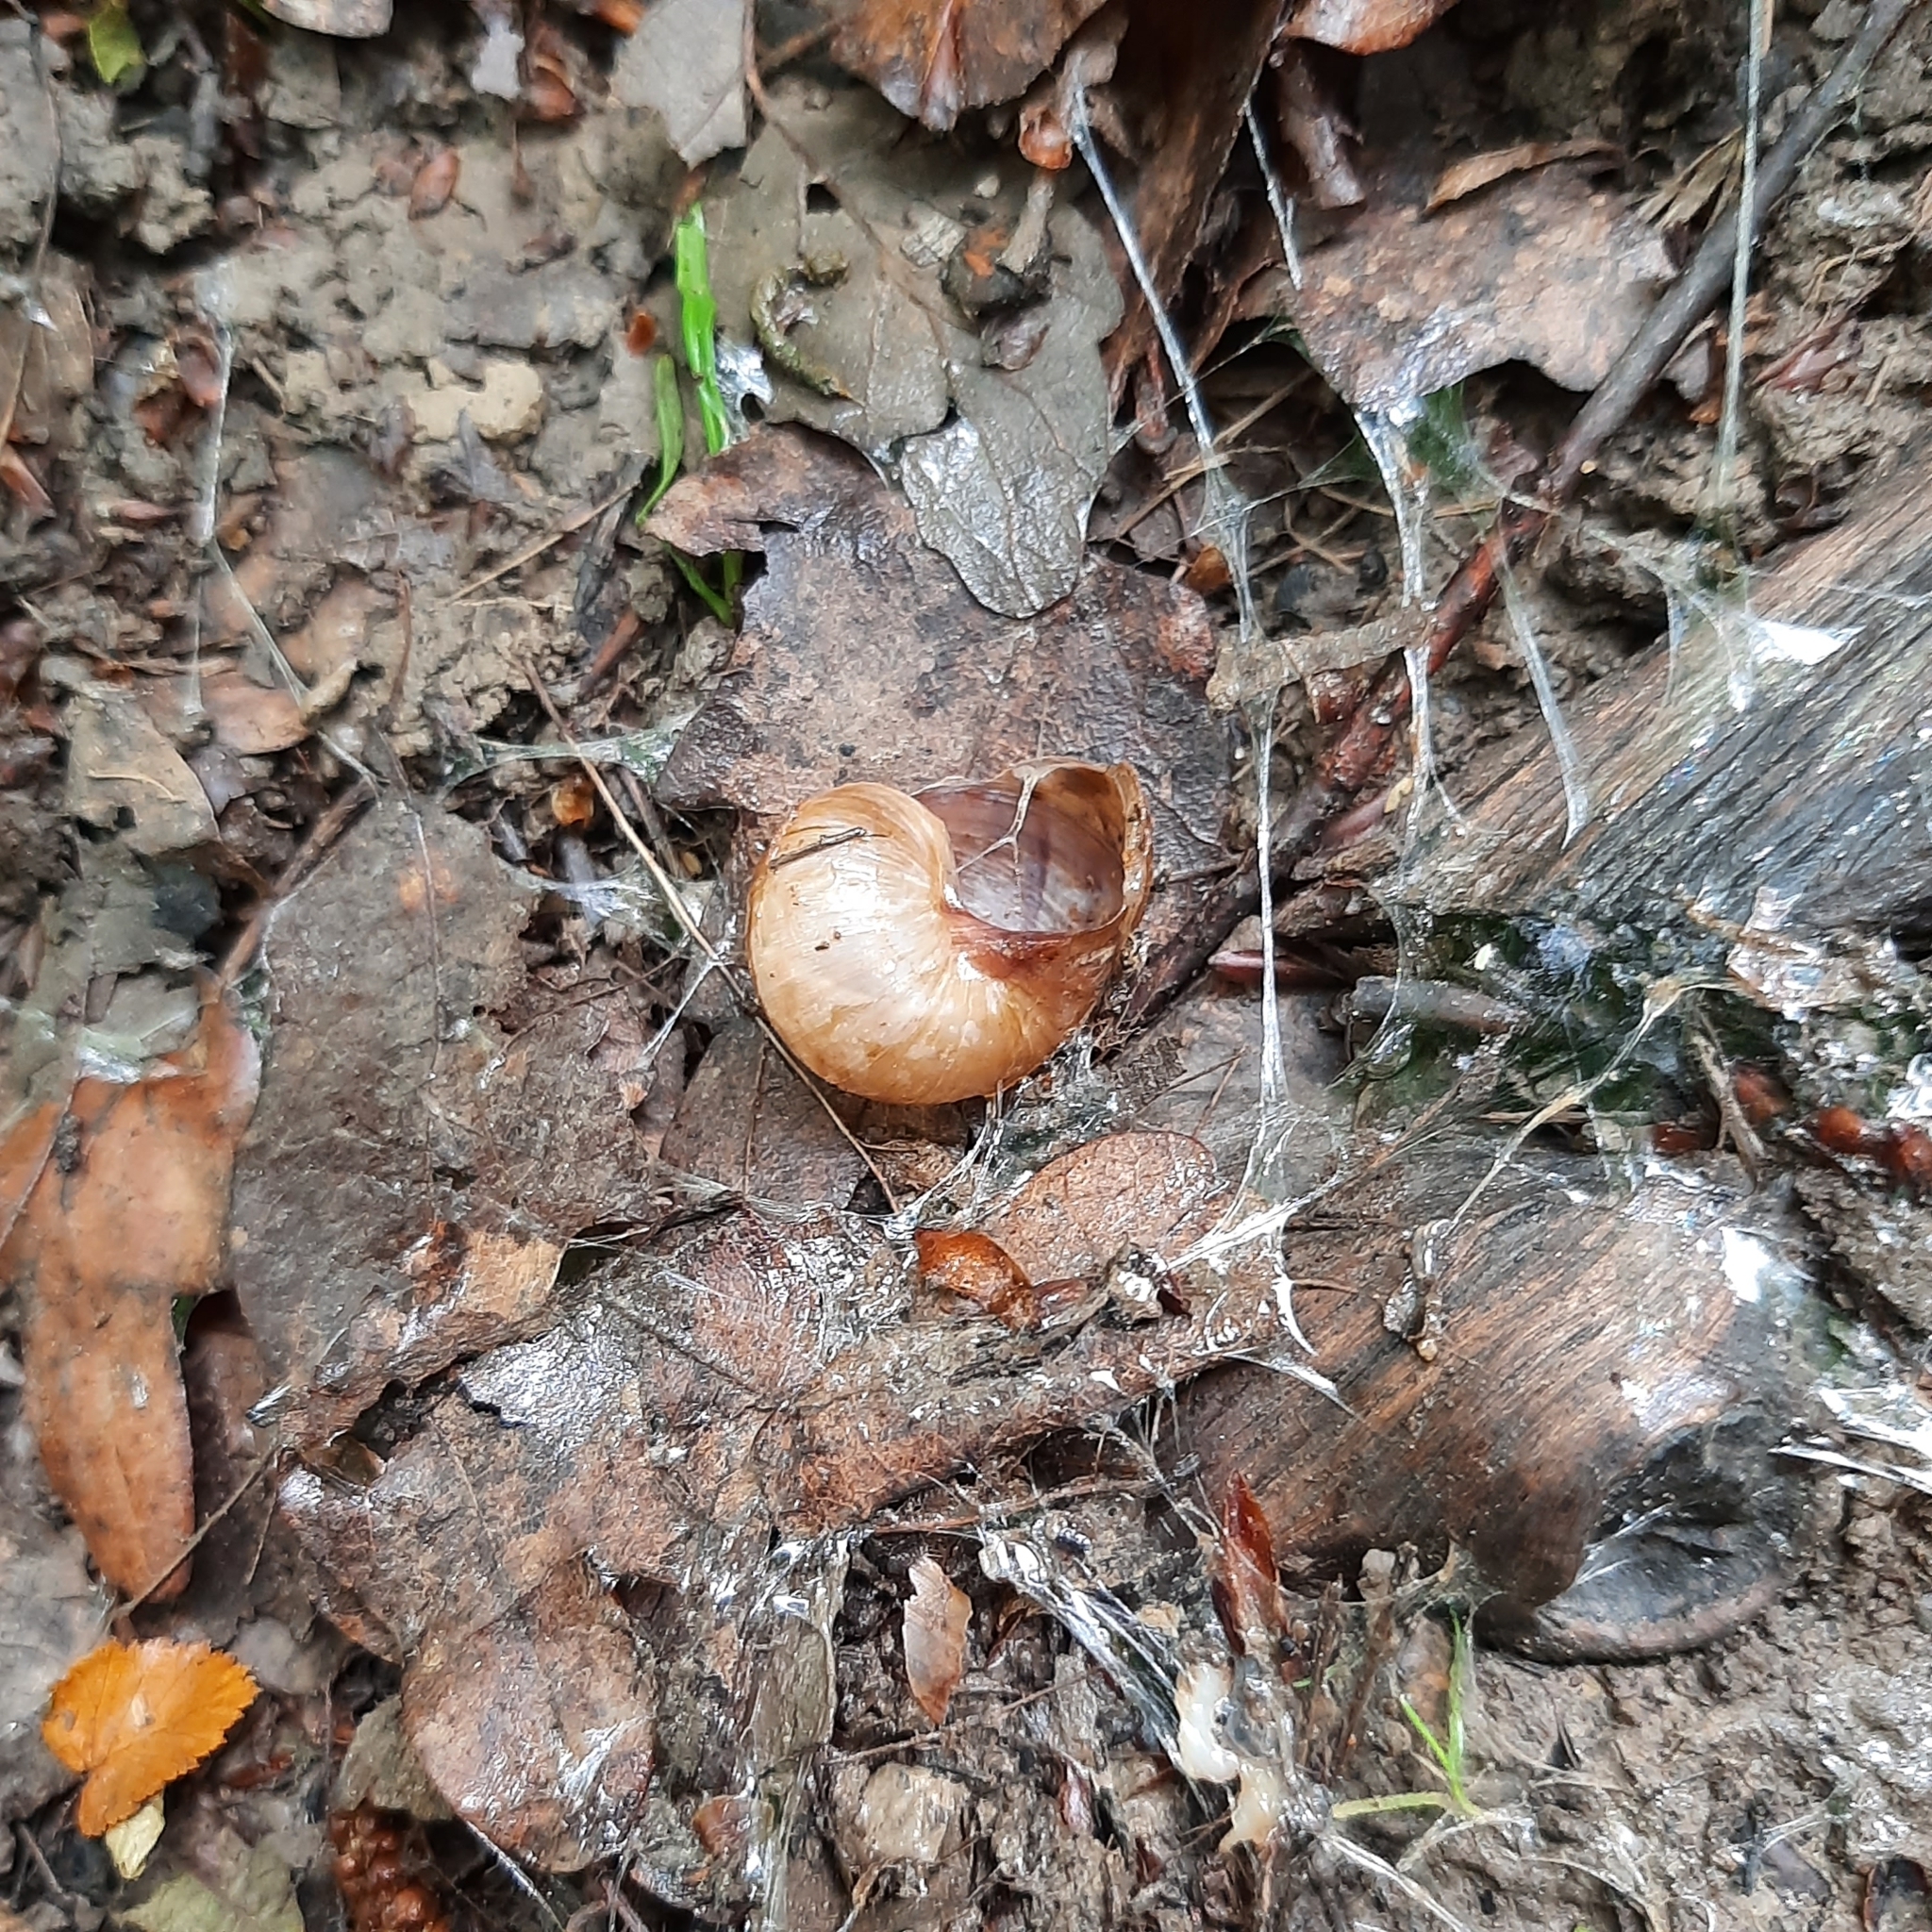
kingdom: Animalia
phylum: Mollusca
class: Gastropoda
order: Stylommatophora
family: Helicidae
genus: Helix
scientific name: Helix pomatia
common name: Roman snail
